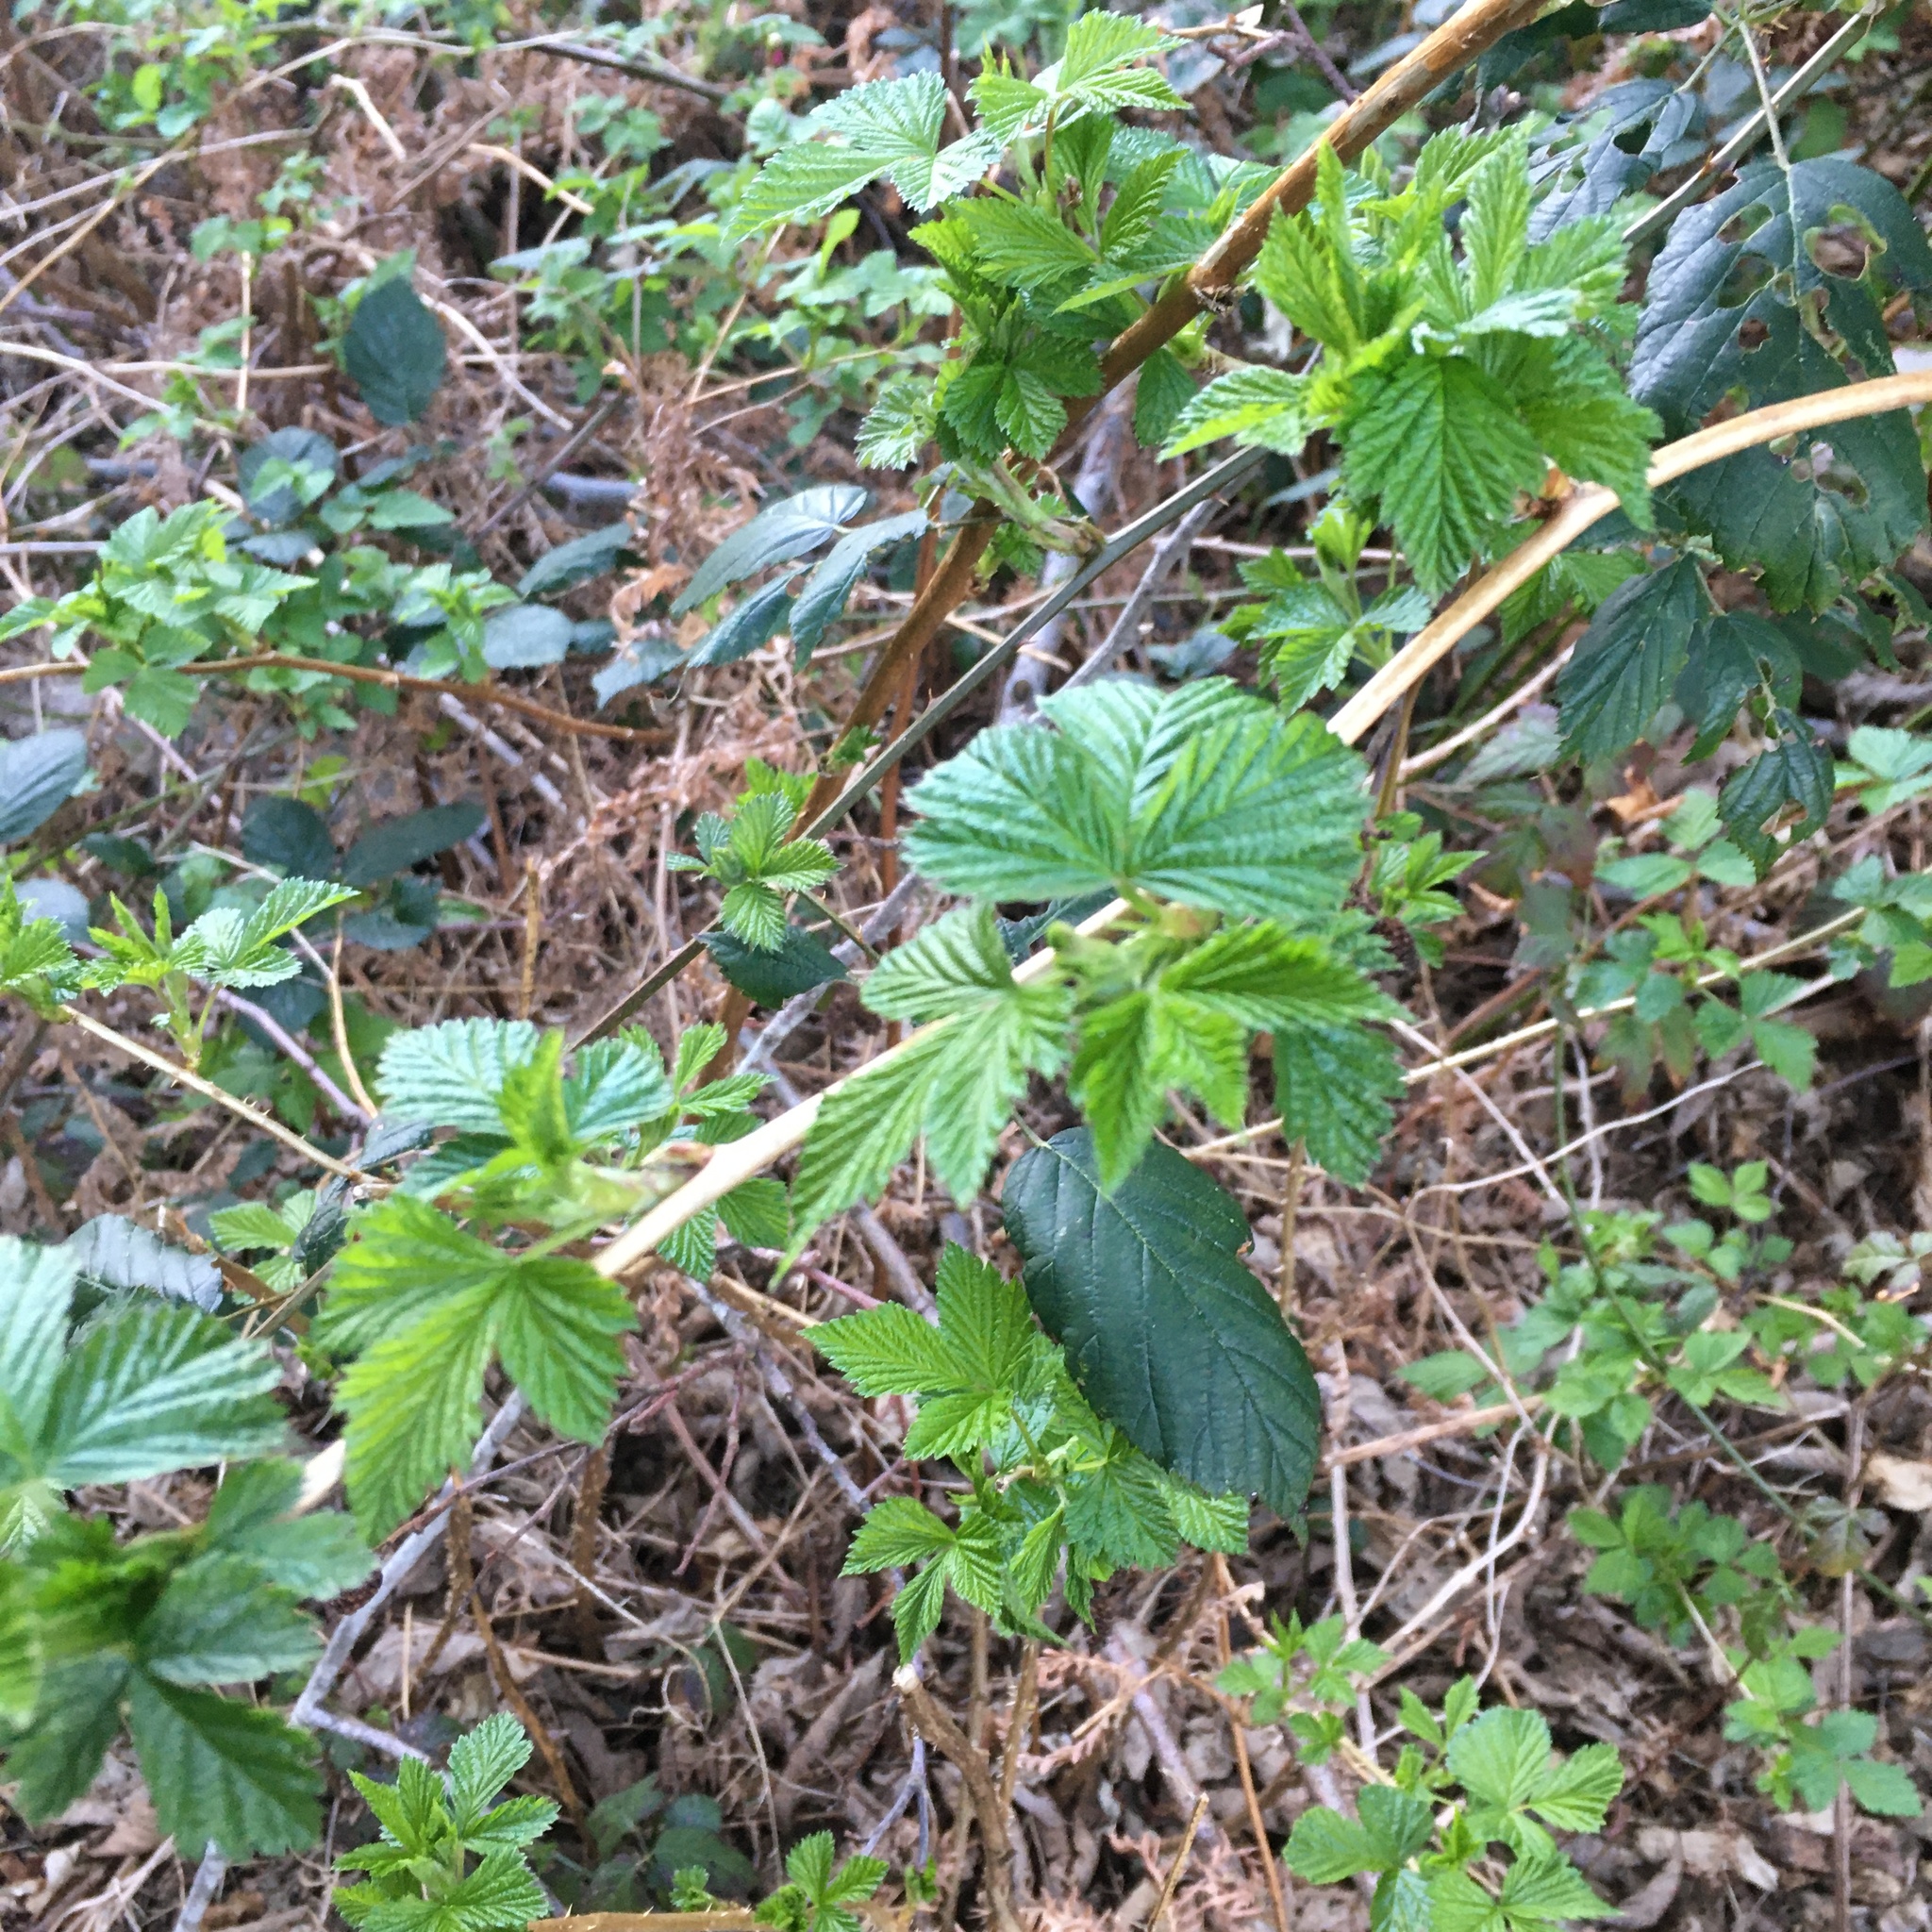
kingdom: Plantae
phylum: Tracheophyta
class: Magnoliopsida
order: Rosales
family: Rosaceae
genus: Rubus
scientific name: Rubus spectabilis
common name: Salmonberry
